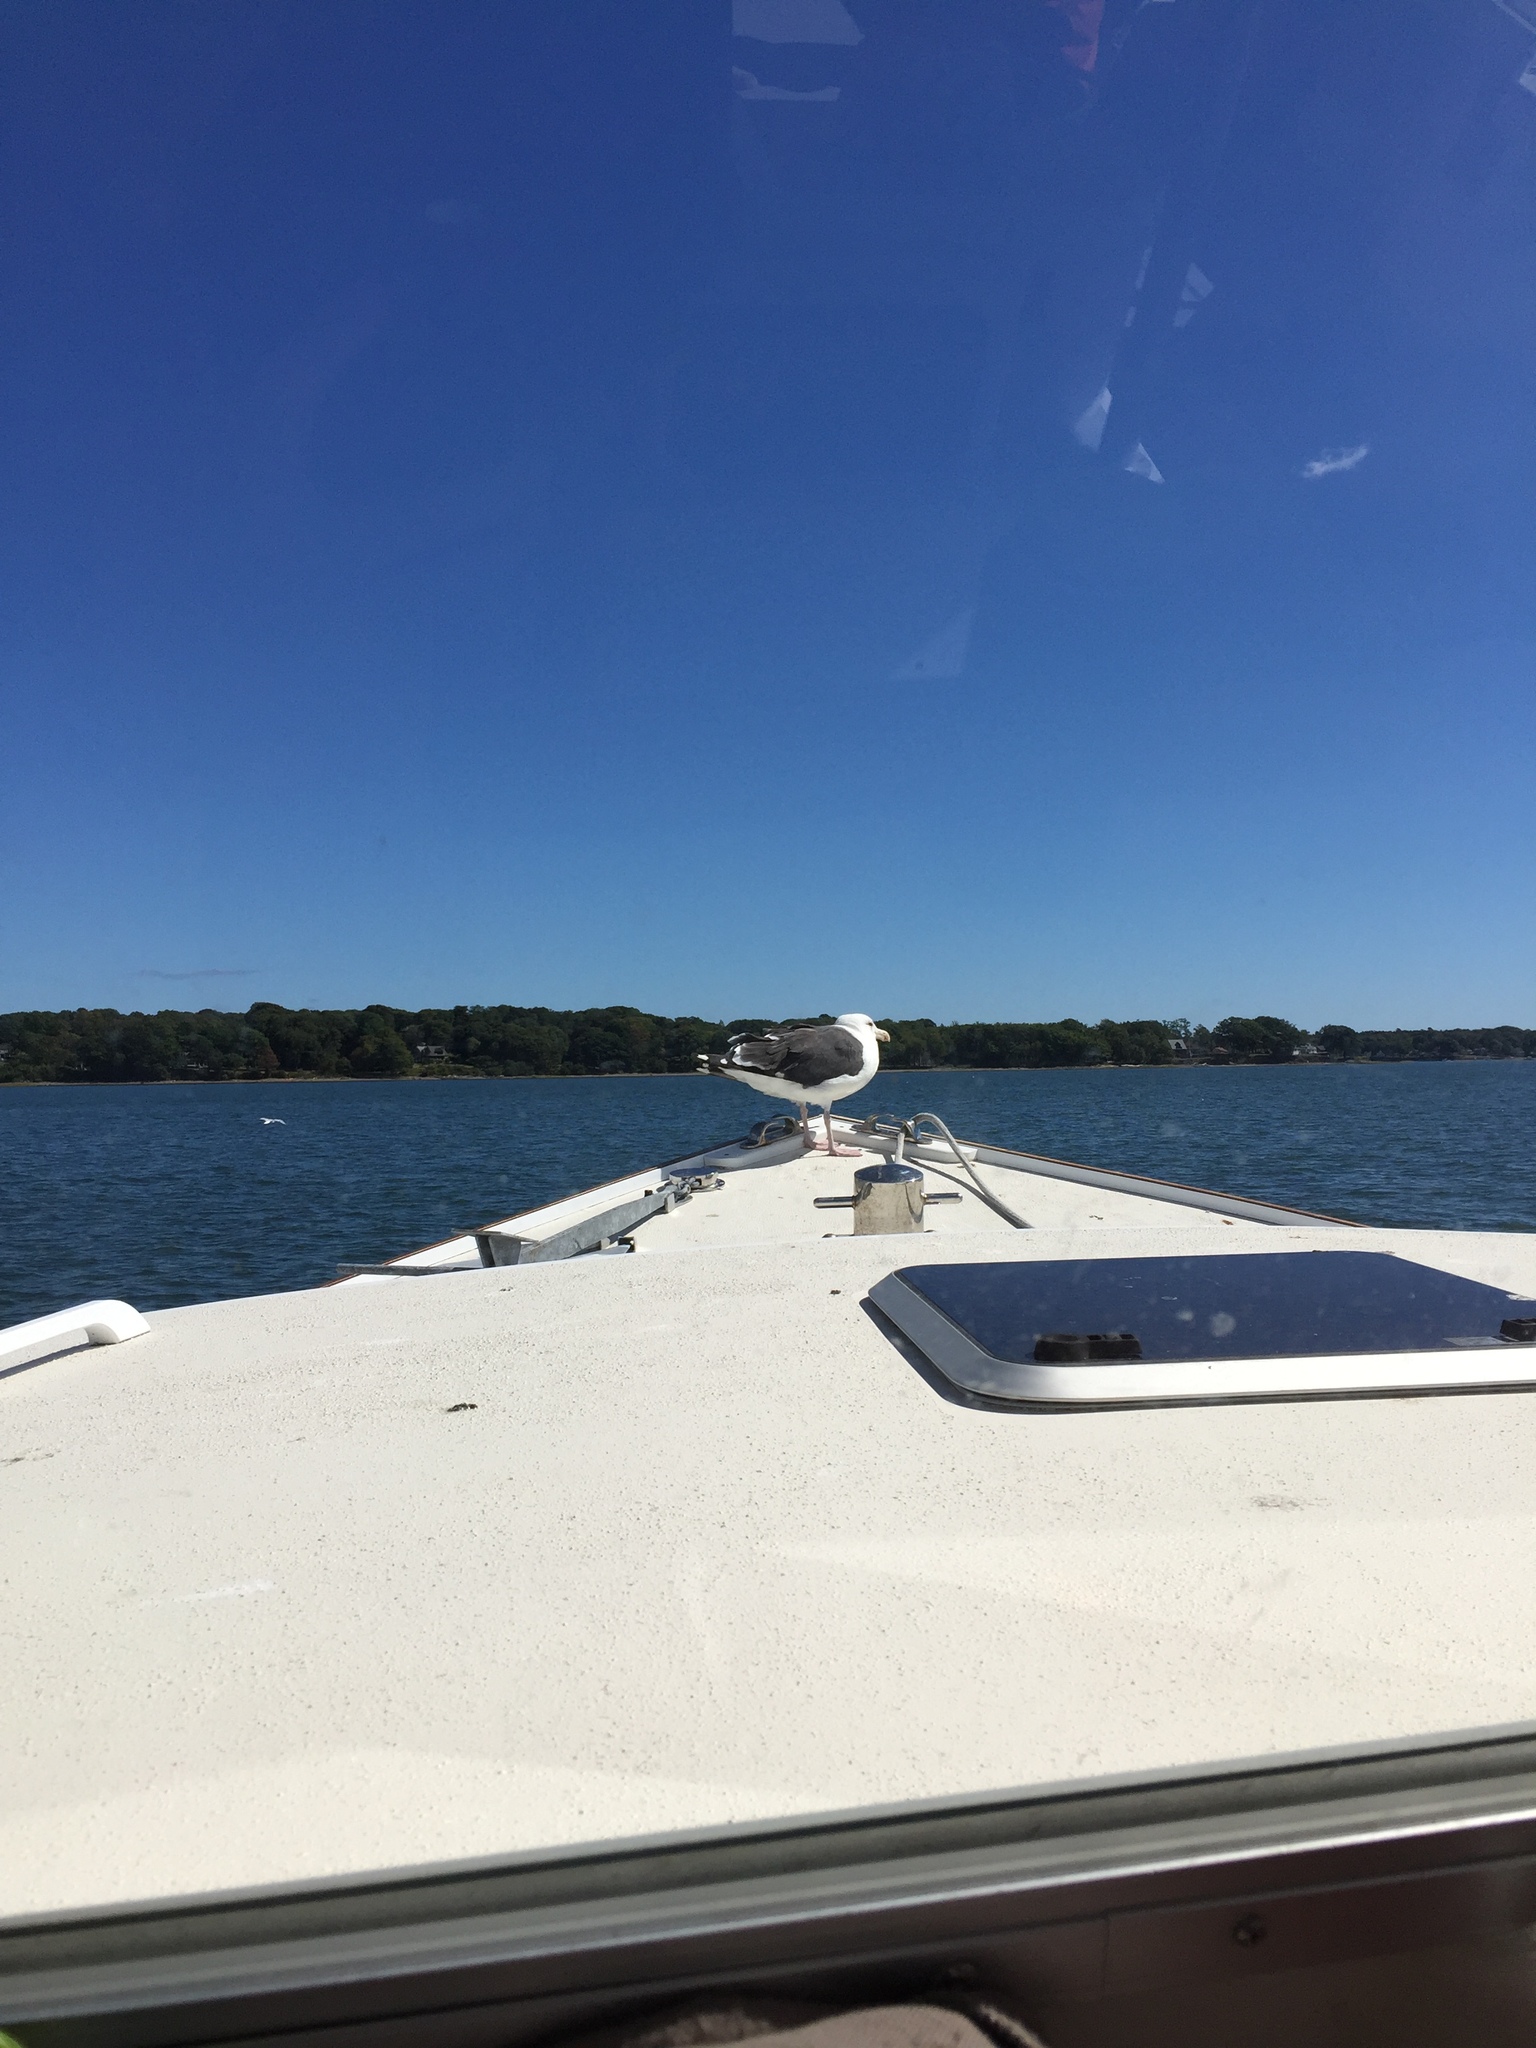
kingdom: Animalia
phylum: Chordata
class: Aves
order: Charadriiformes
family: Laridae
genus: Larus
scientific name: Larus marinus
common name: Great black-backed gull
